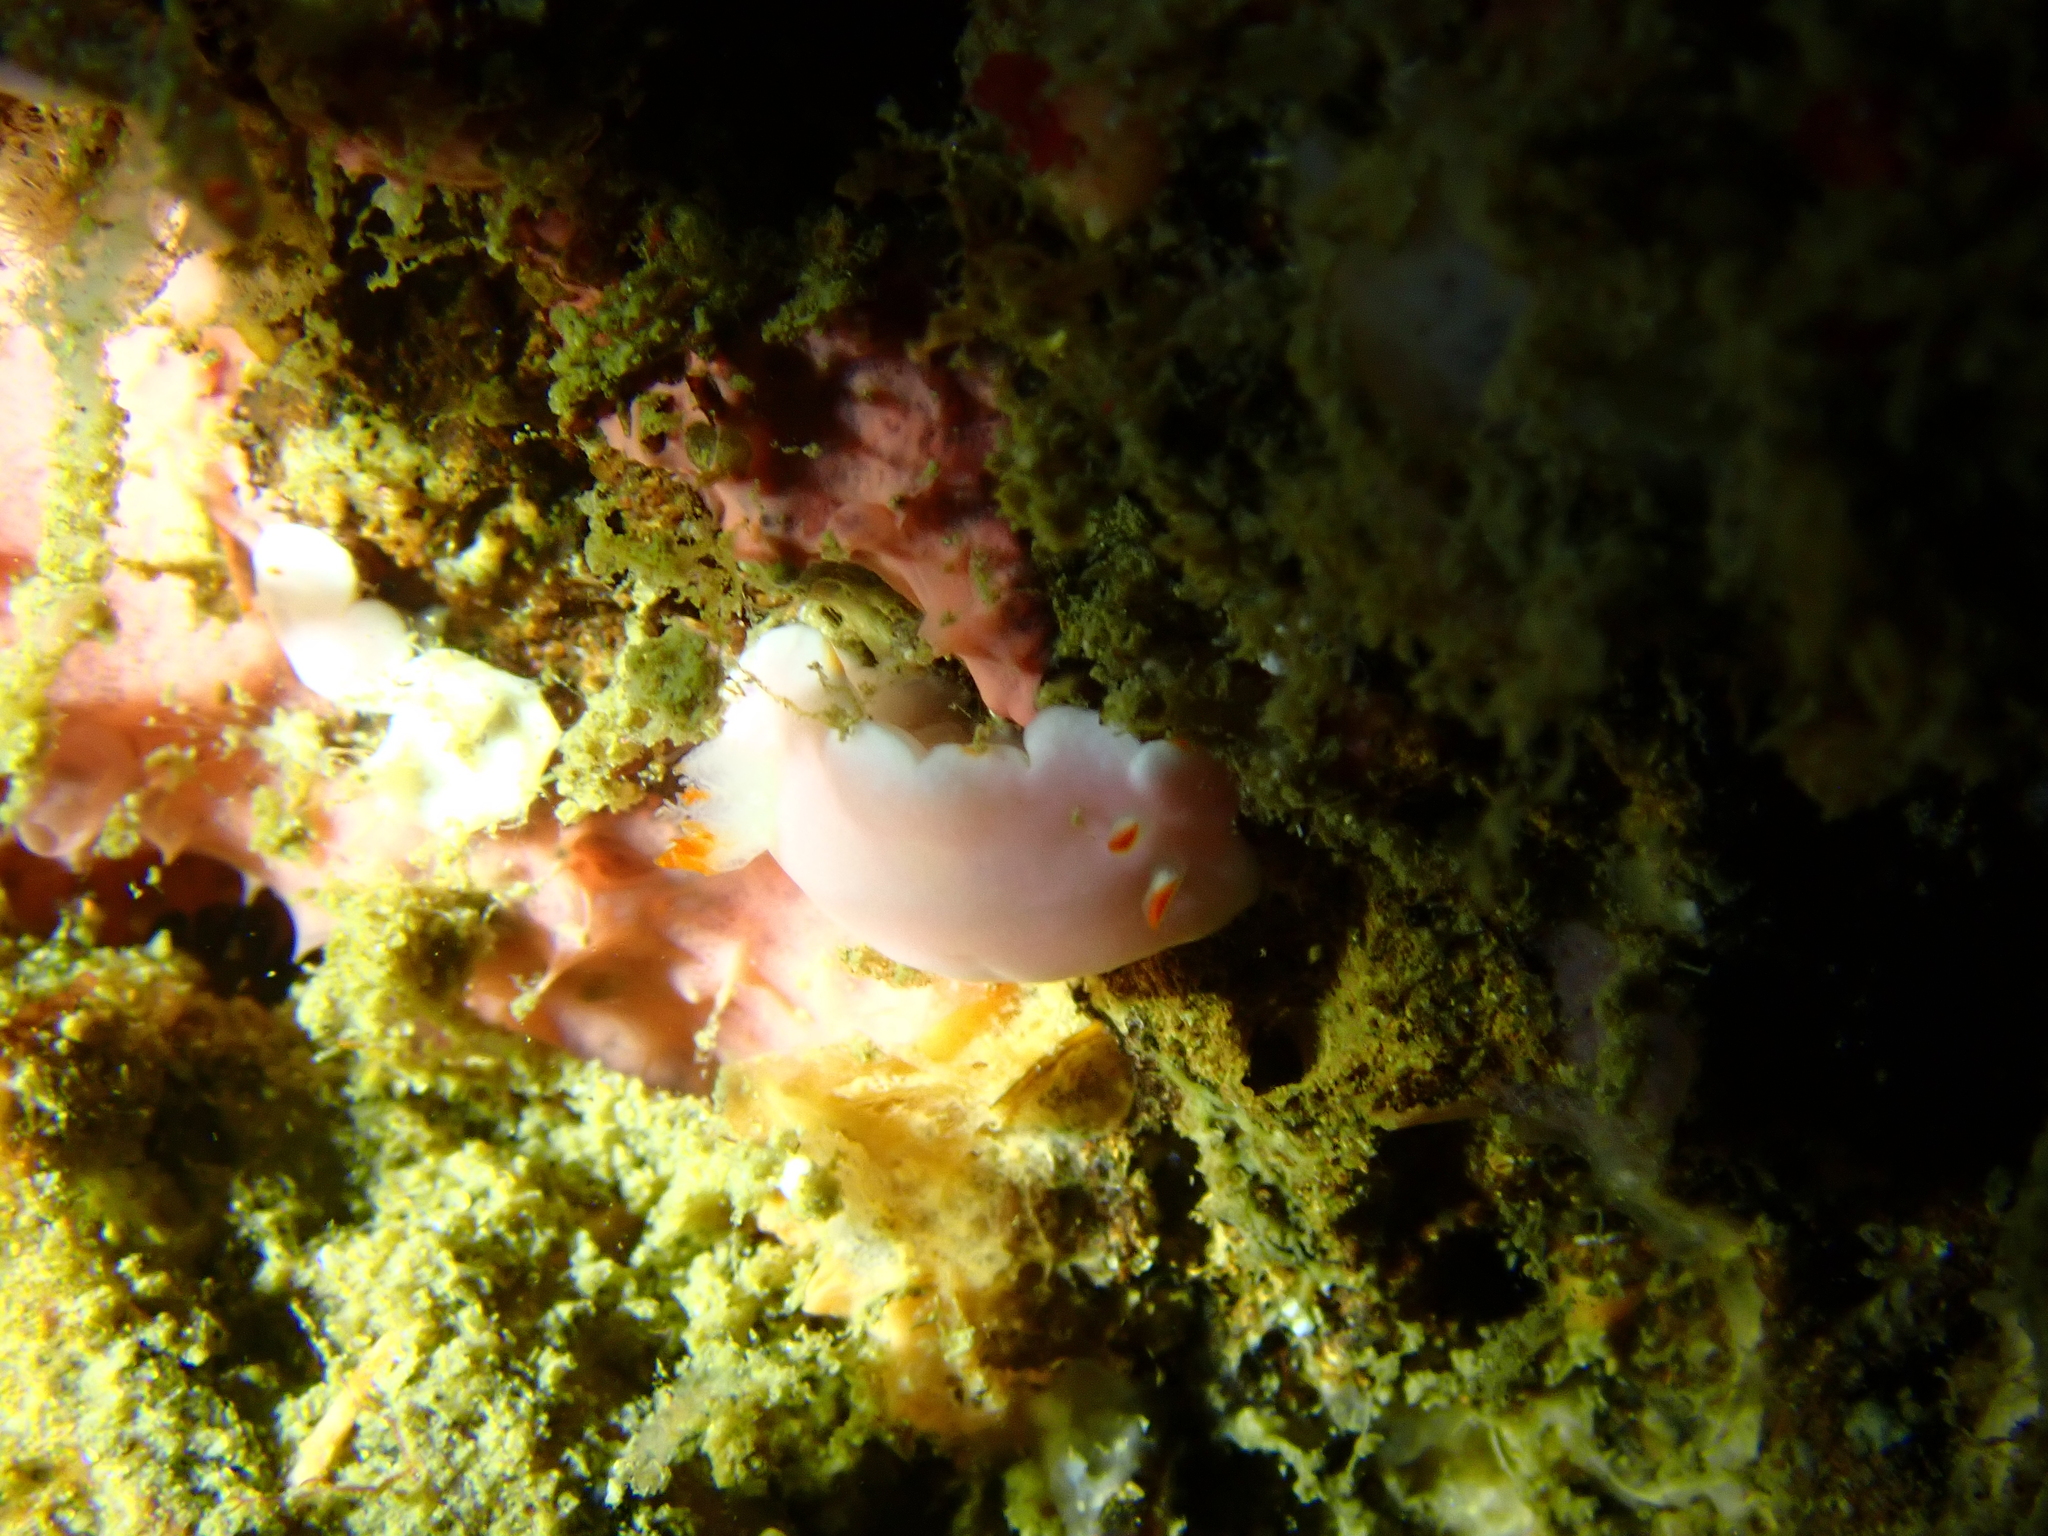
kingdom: Animalia
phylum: Mollusca
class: Gastropoda
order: Nudibranchia
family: Chromodorididae
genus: Verconia
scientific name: Verconia simplex
